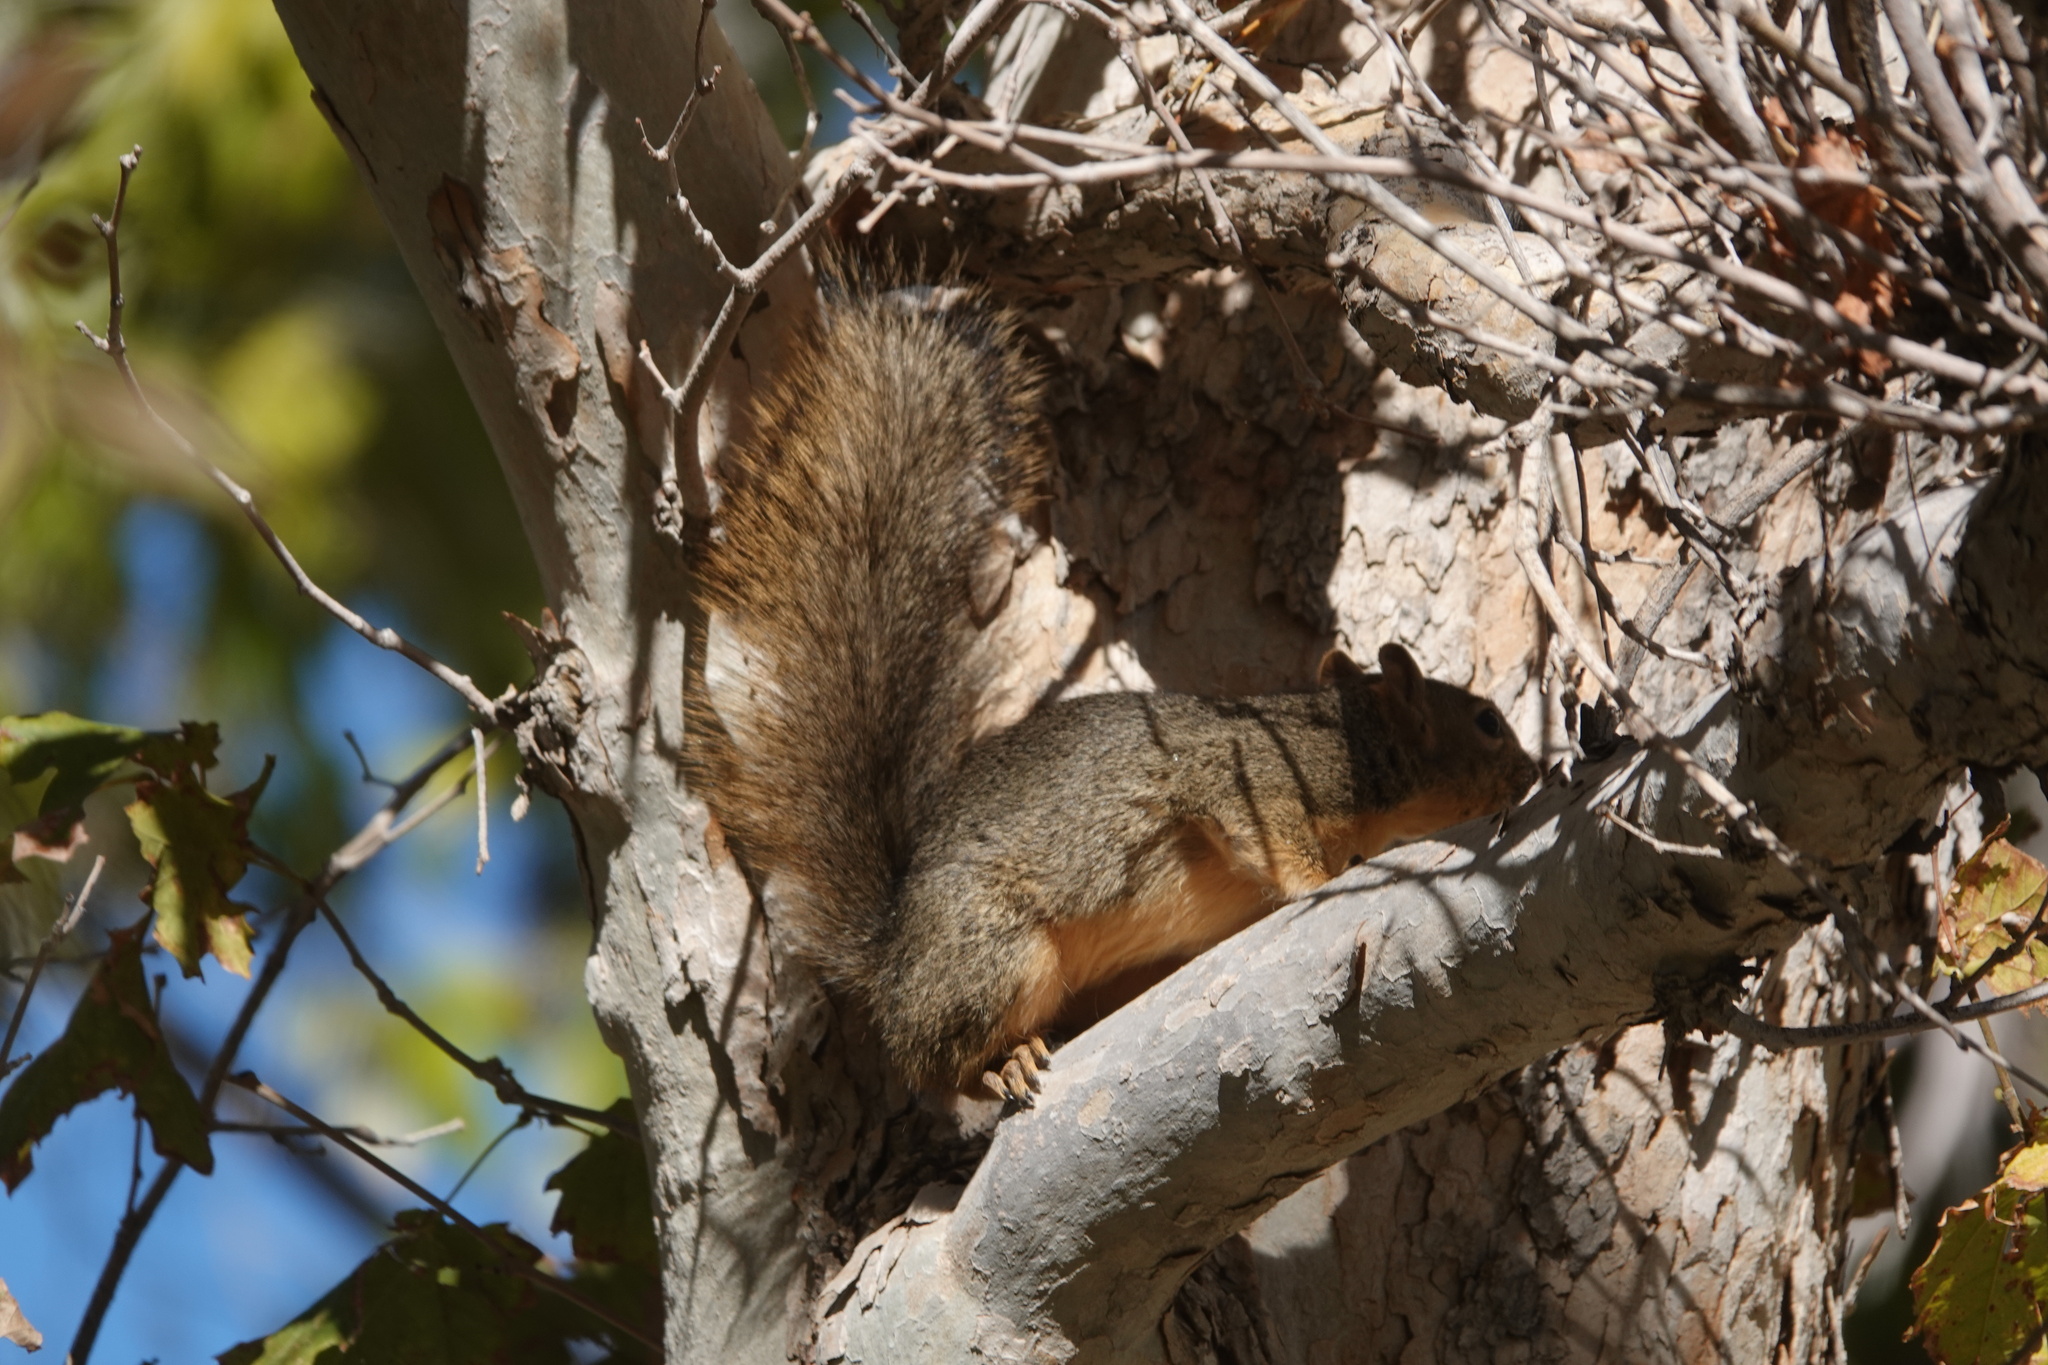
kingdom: Animalia
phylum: Chordata
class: Mammalia
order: Rodentia
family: Sciuridae
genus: Sciurus
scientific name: Sciurus niger
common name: Fox squirrel
